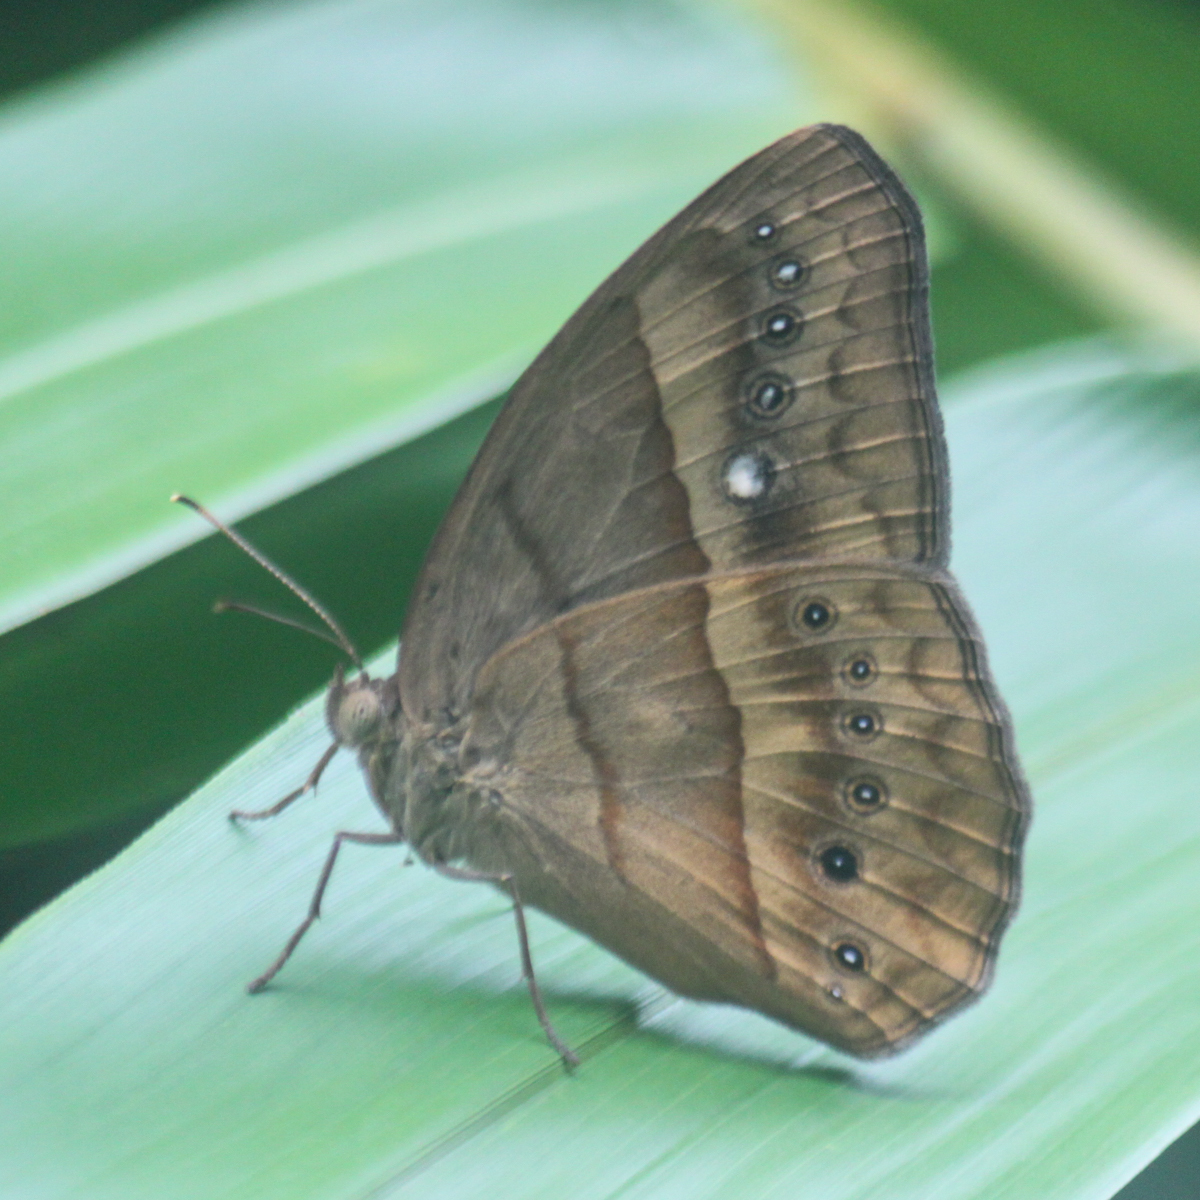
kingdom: Animalia
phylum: Arthropoda
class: Insecta
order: Lepidoptera
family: Nymphalidae
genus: Mycalesis
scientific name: Mycalesis mnasicles
